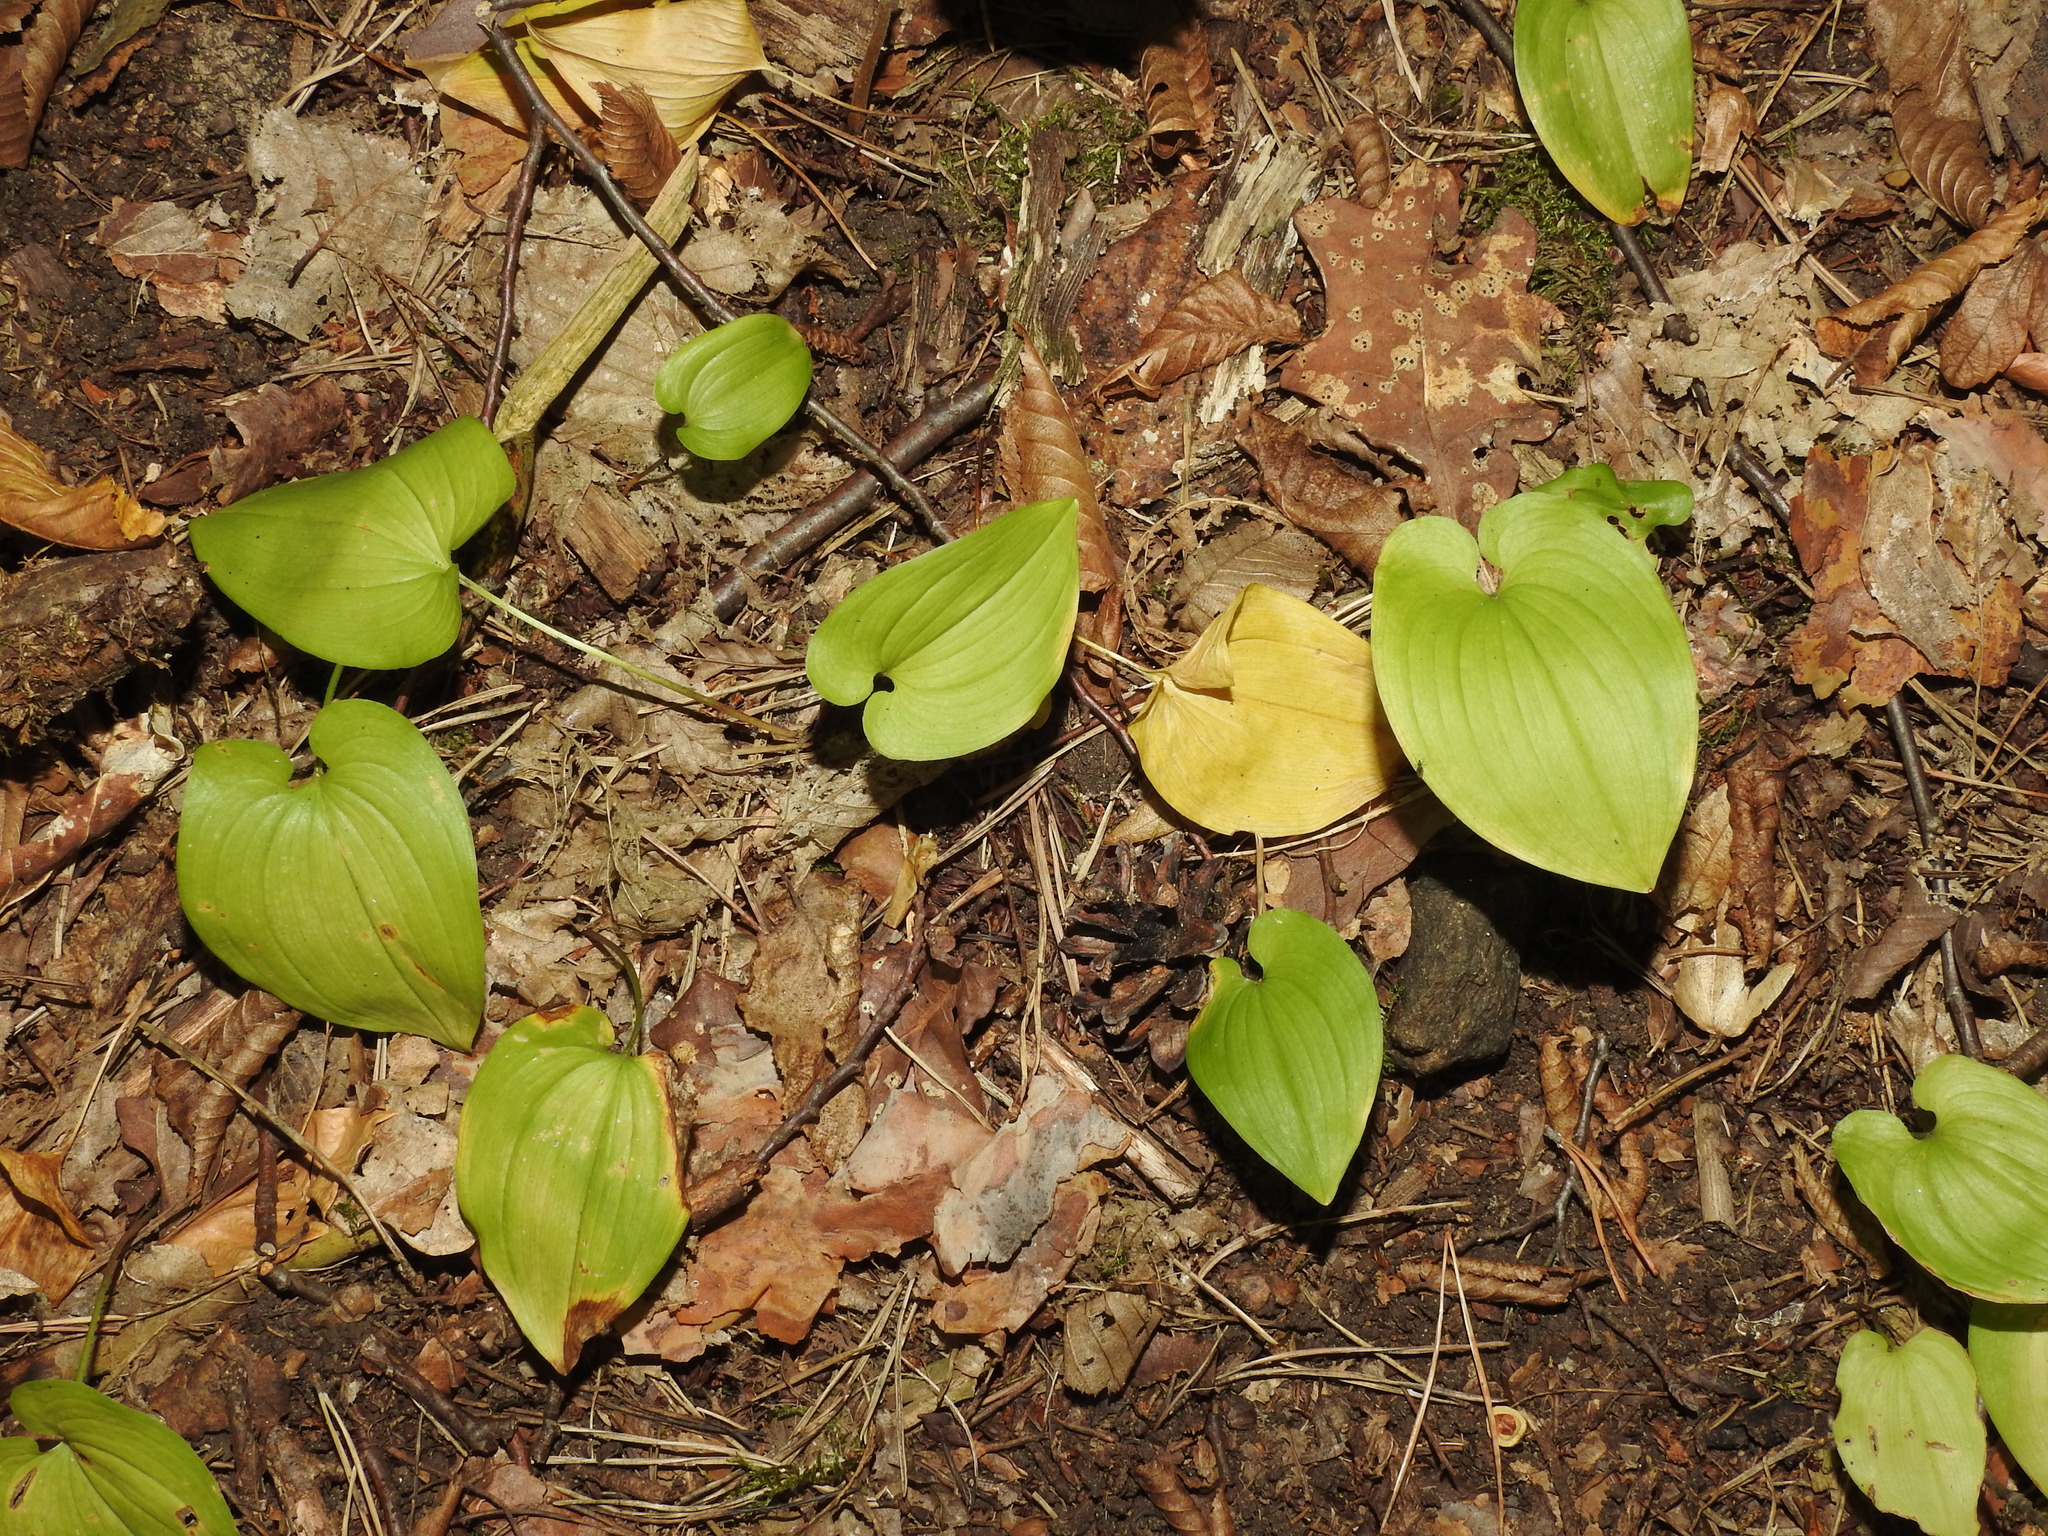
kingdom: Plantae
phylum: Tracheophyta
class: Liliopsida
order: Asparagales
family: Asparagaceae
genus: Maianthemum
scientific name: Maianthemum bifolium
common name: May lily
